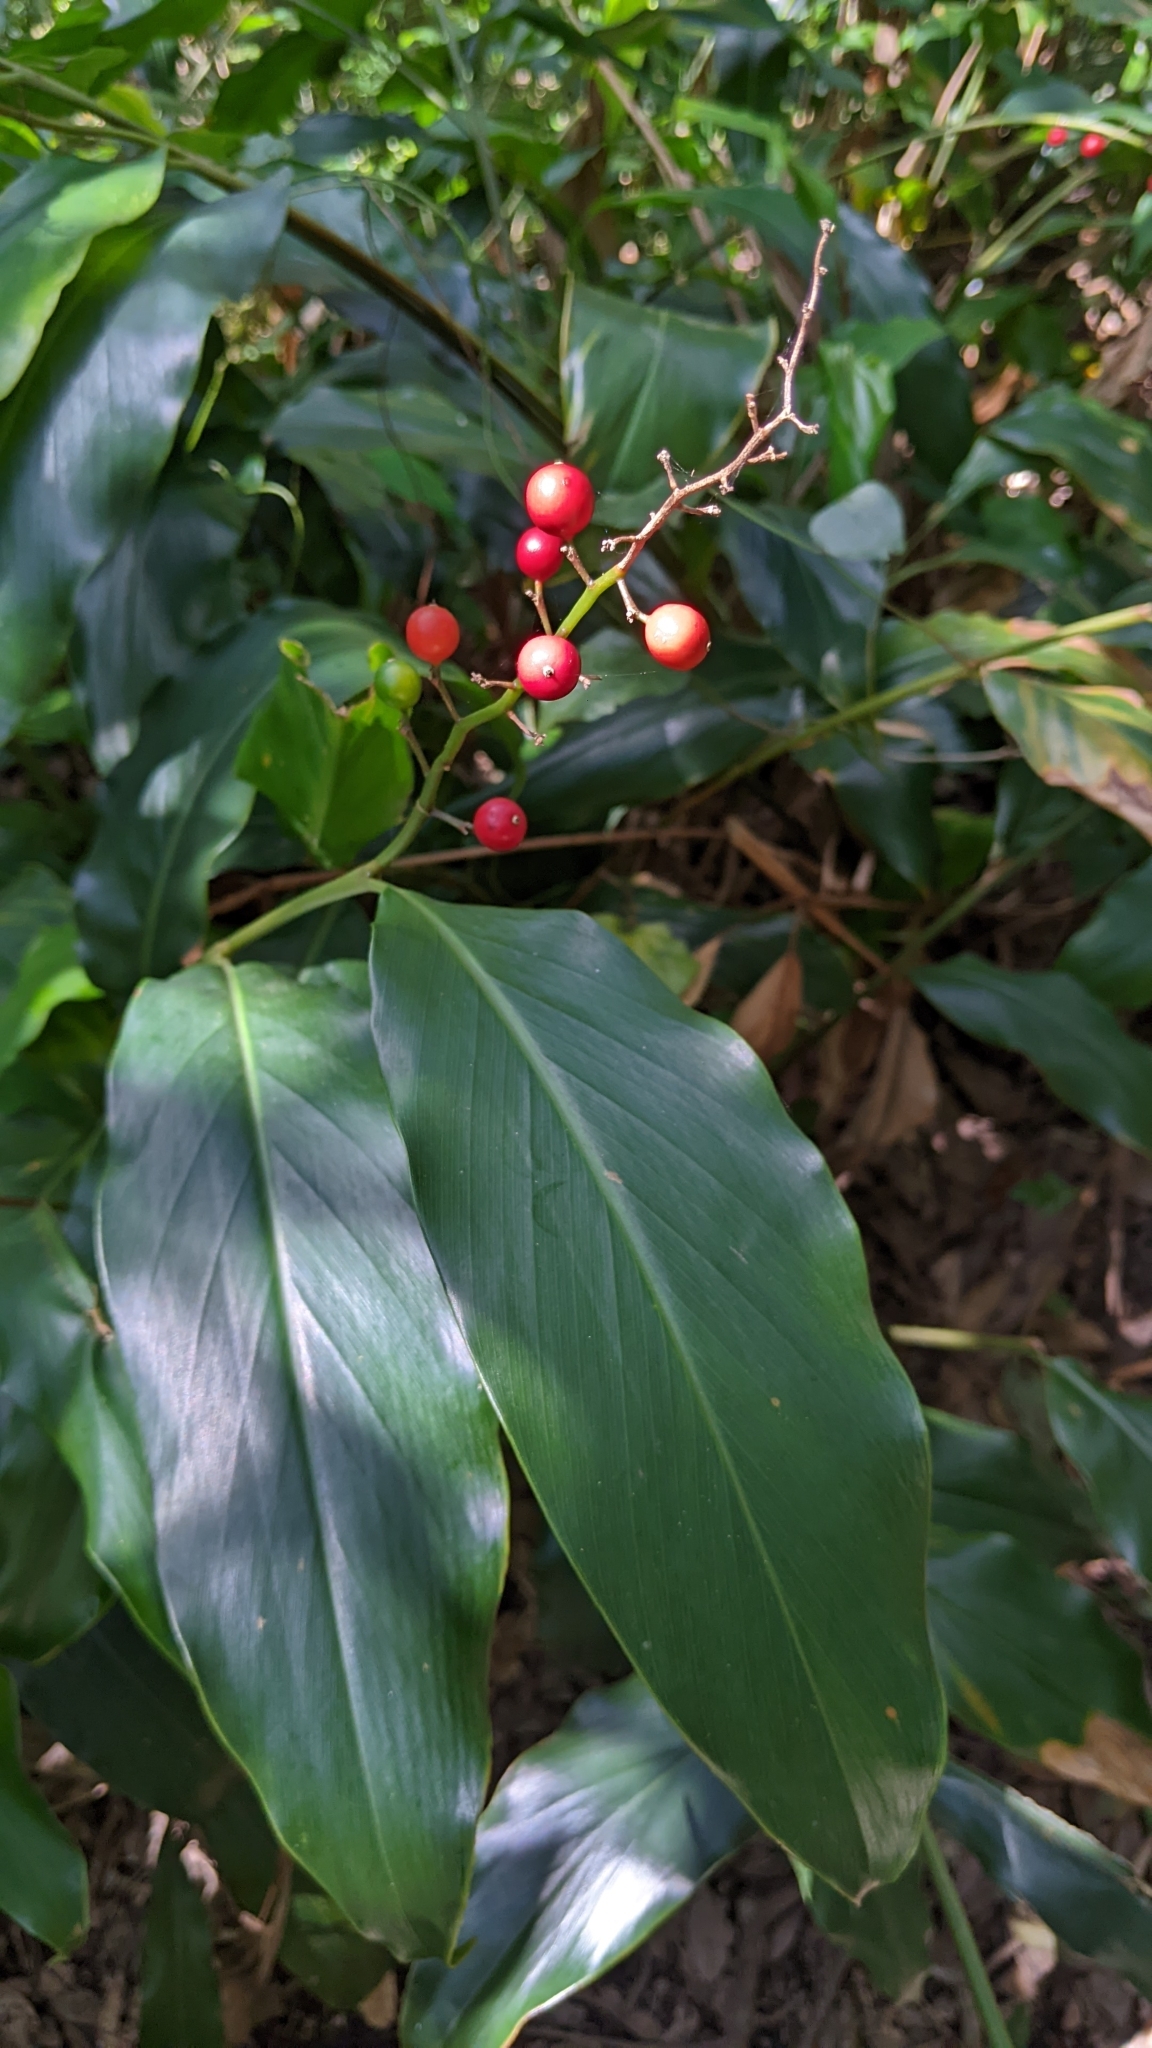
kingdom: Plantae
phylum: Tracheophyta
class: Liliopsida
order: Zingiberales
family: Zingiberaceae
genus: Alpinia
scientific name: Alpinia intermedia
